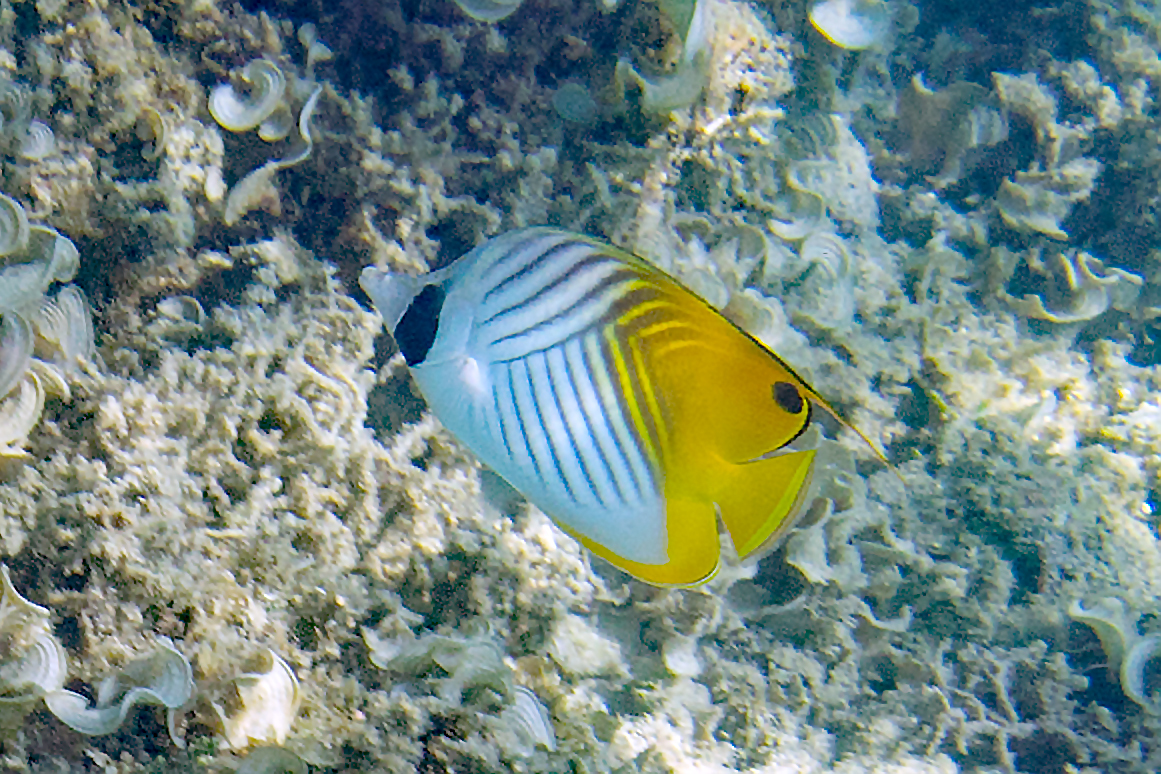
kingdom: Animalia
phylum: Chordata
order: Perciformes
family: Chaetodontidae
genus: Chaetodon
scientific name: Chaetodon auriga
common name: Threadfin butterflyfish
